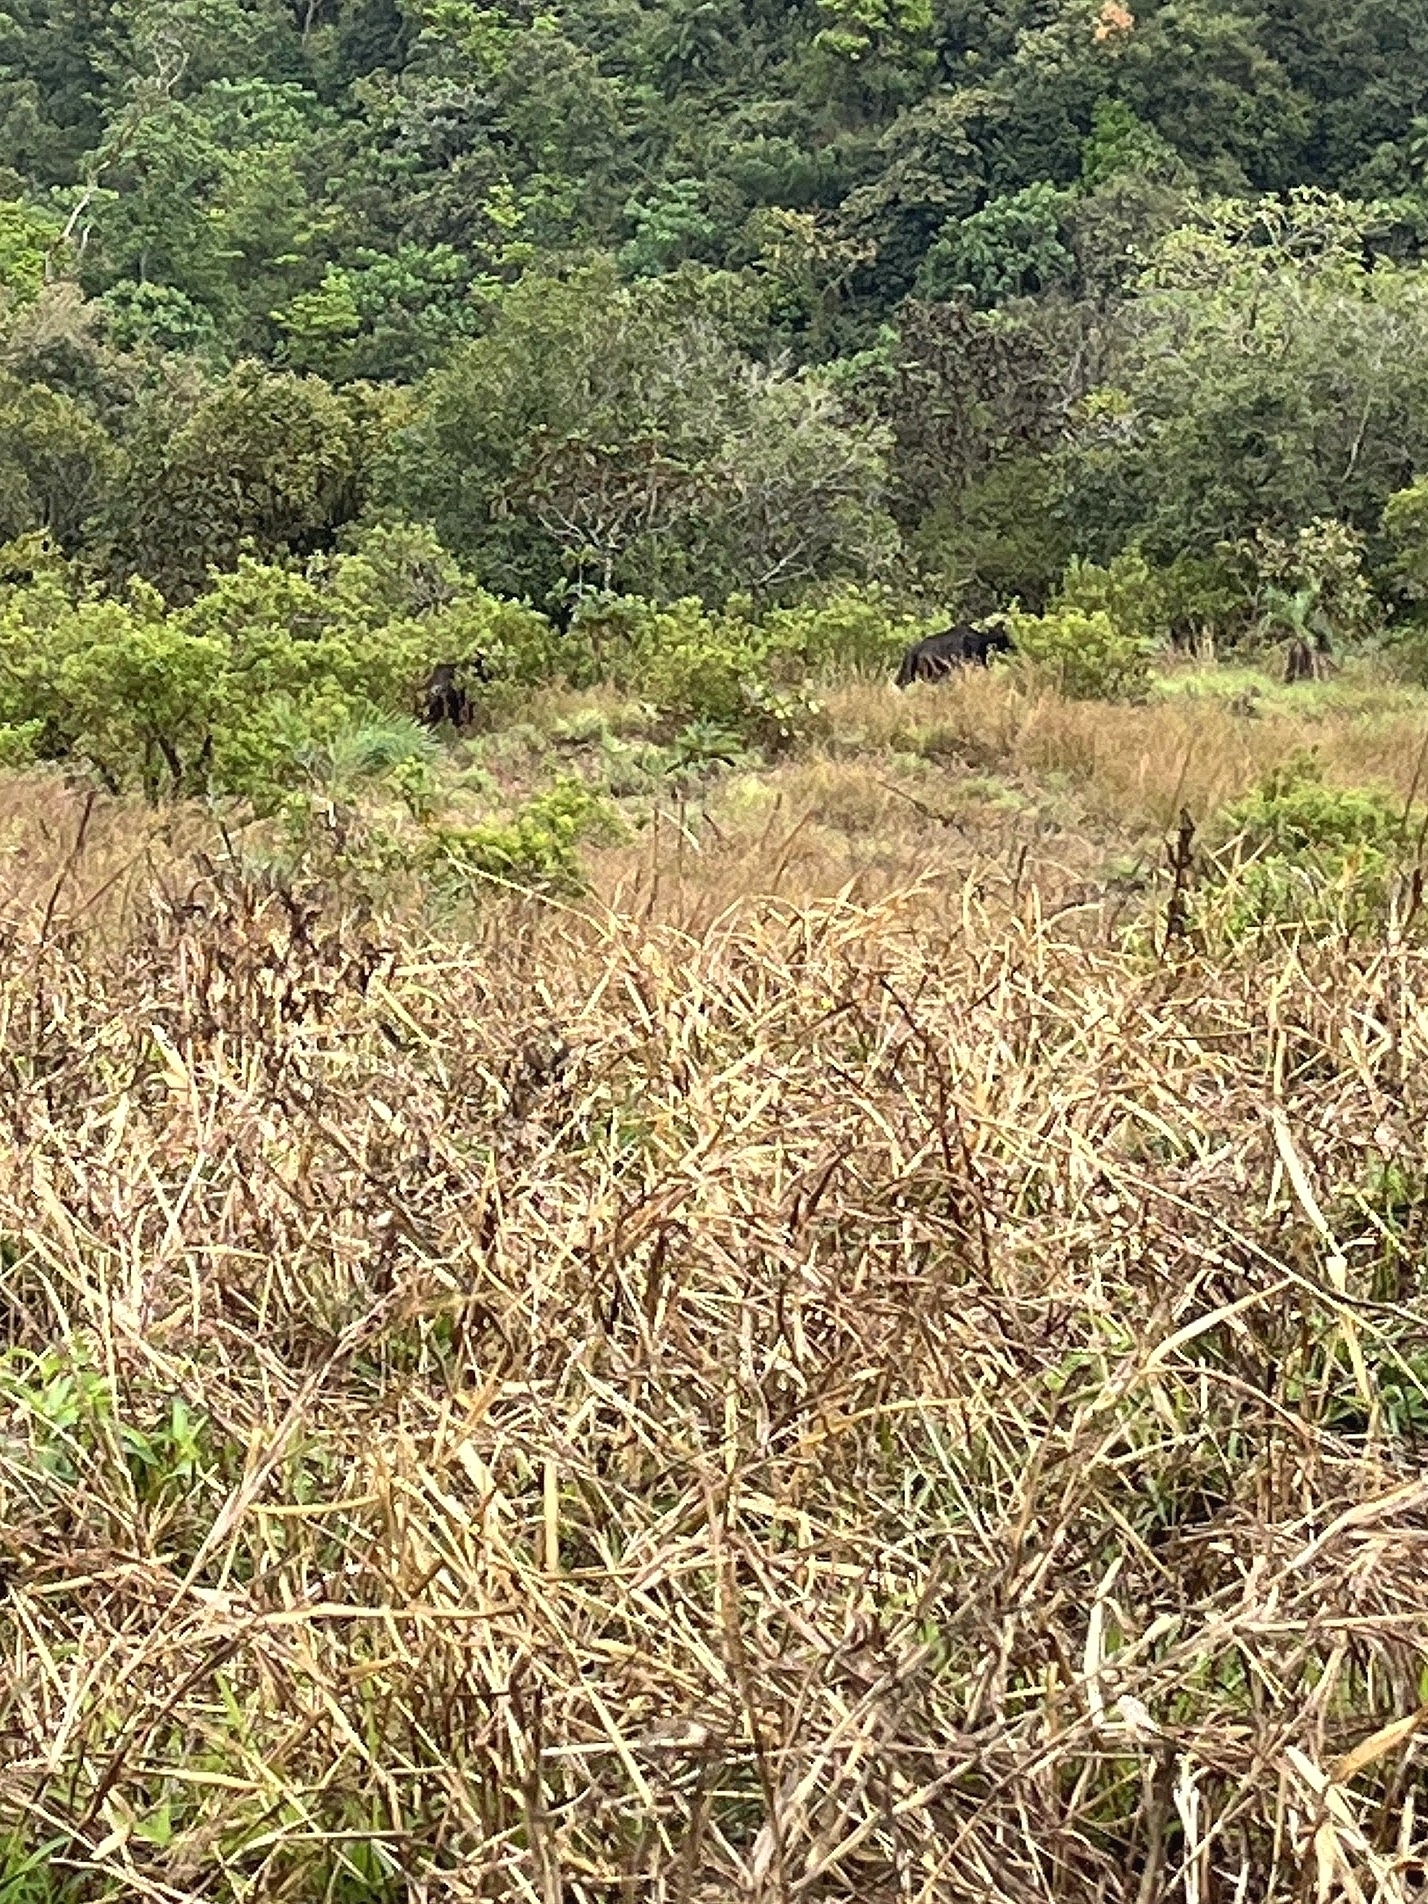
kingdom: Animalia
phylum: Chordata
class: Mammalia
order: Artiodactyla
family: Bovidae
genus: Bos
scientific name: Bos frontalis
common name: Gaur
